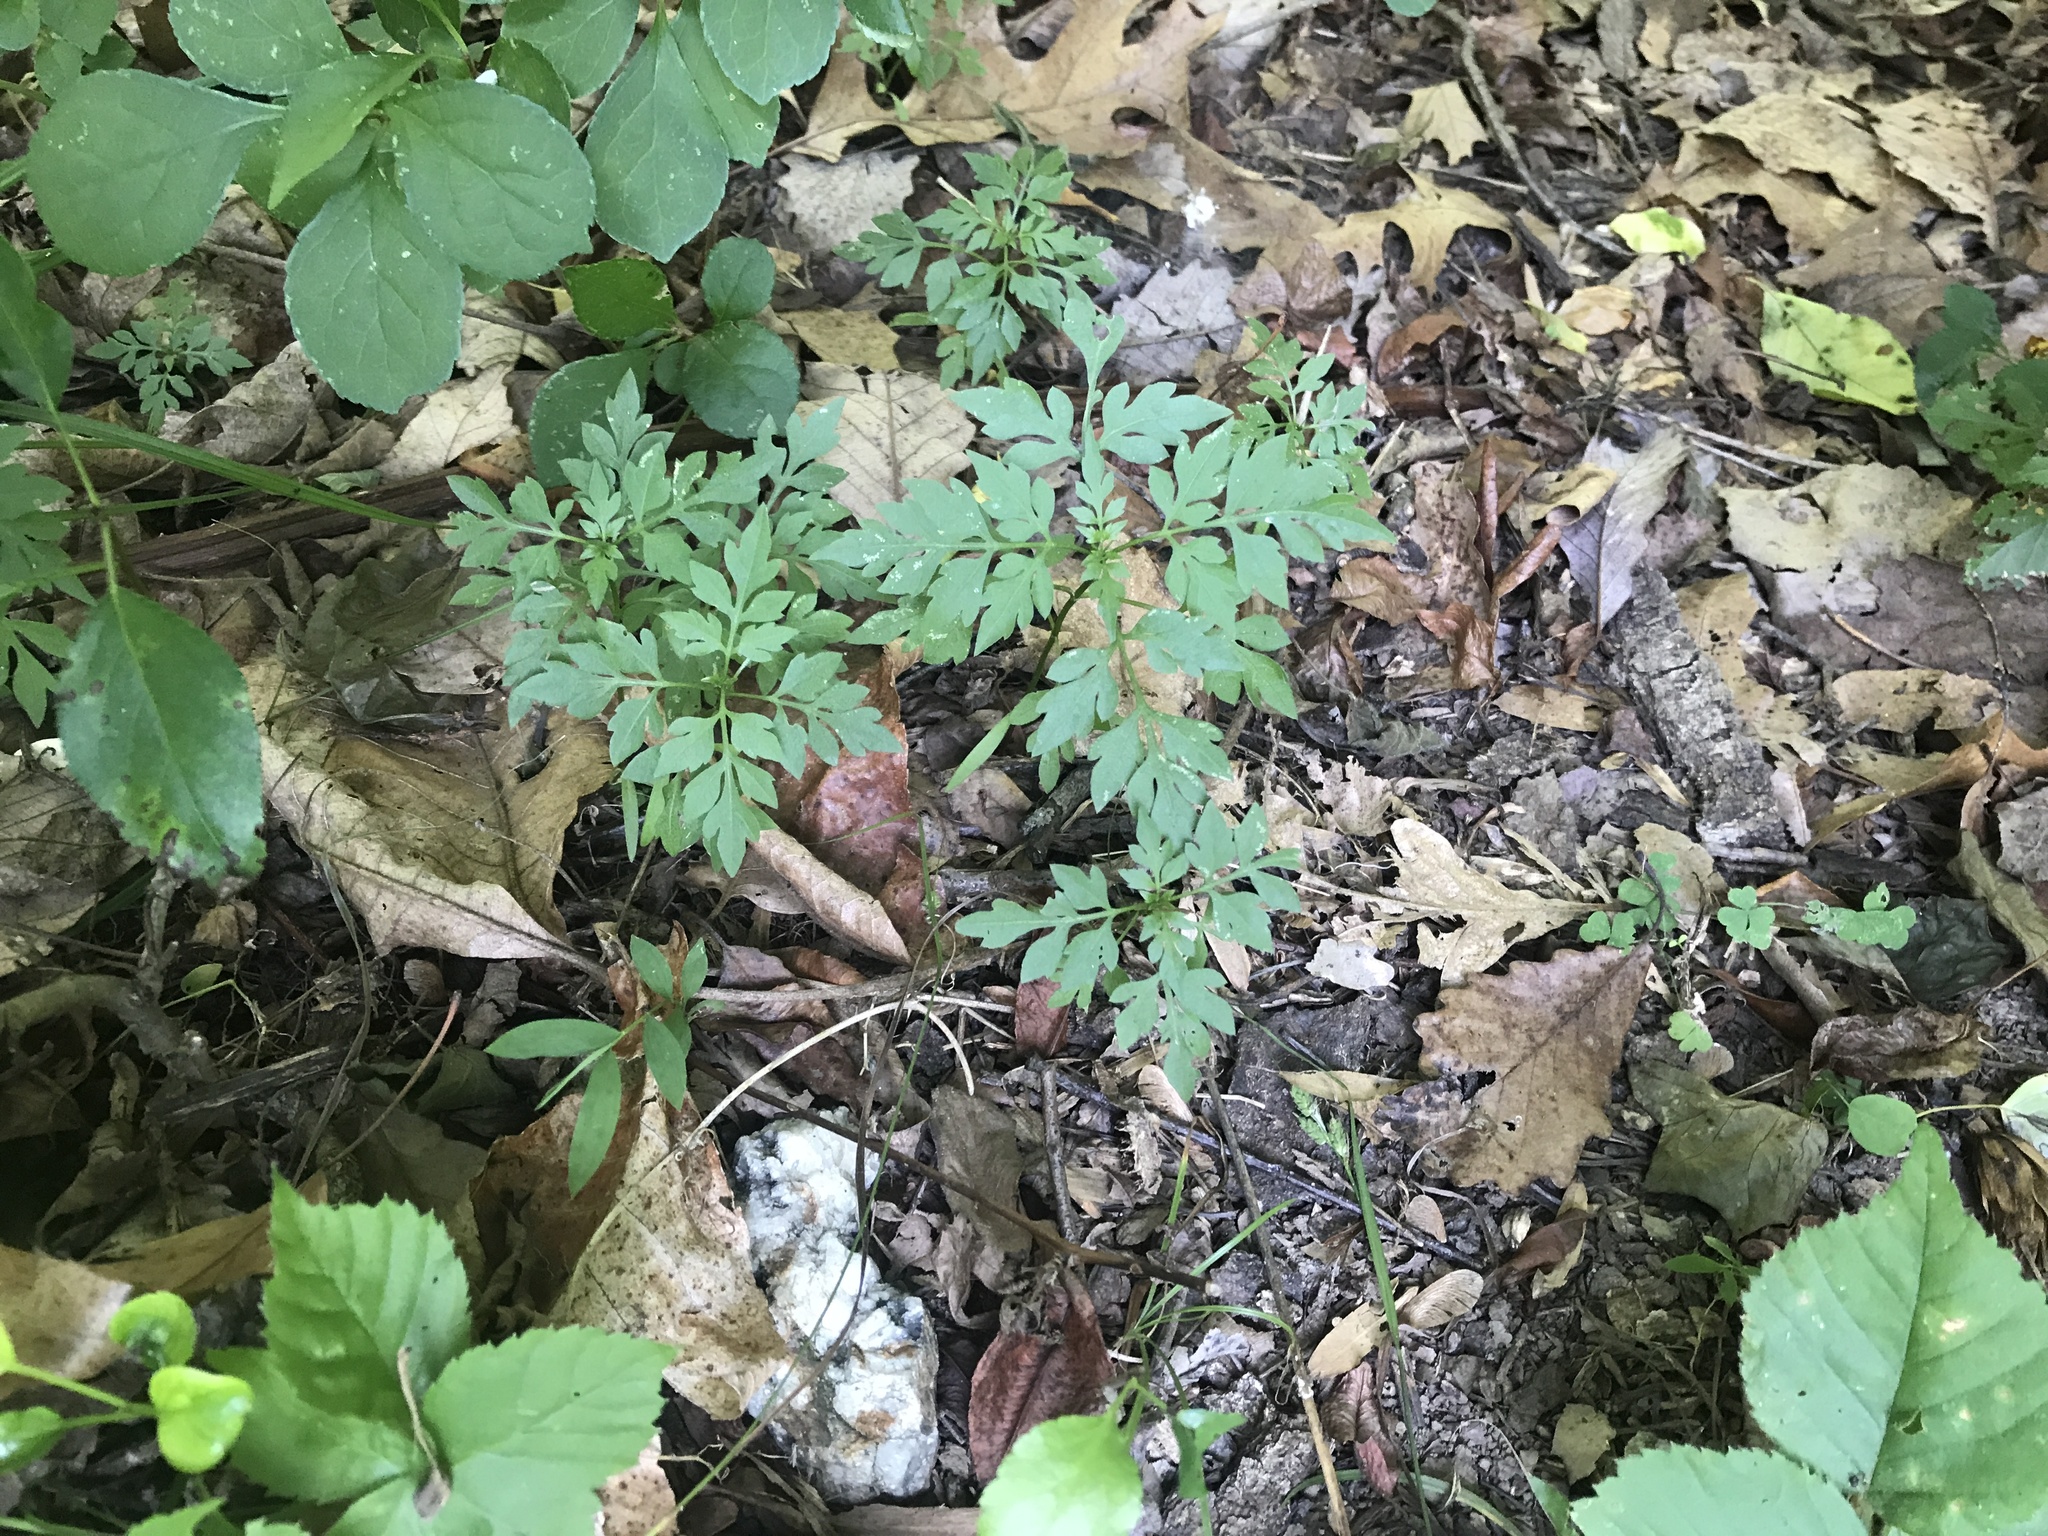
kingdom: Plantae
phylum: Tracheophyta
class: Magnoliopsida
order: Asterales
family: Asteraceae
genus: Bidens
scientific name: Bidens bipinnata
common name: Spanish-needles
